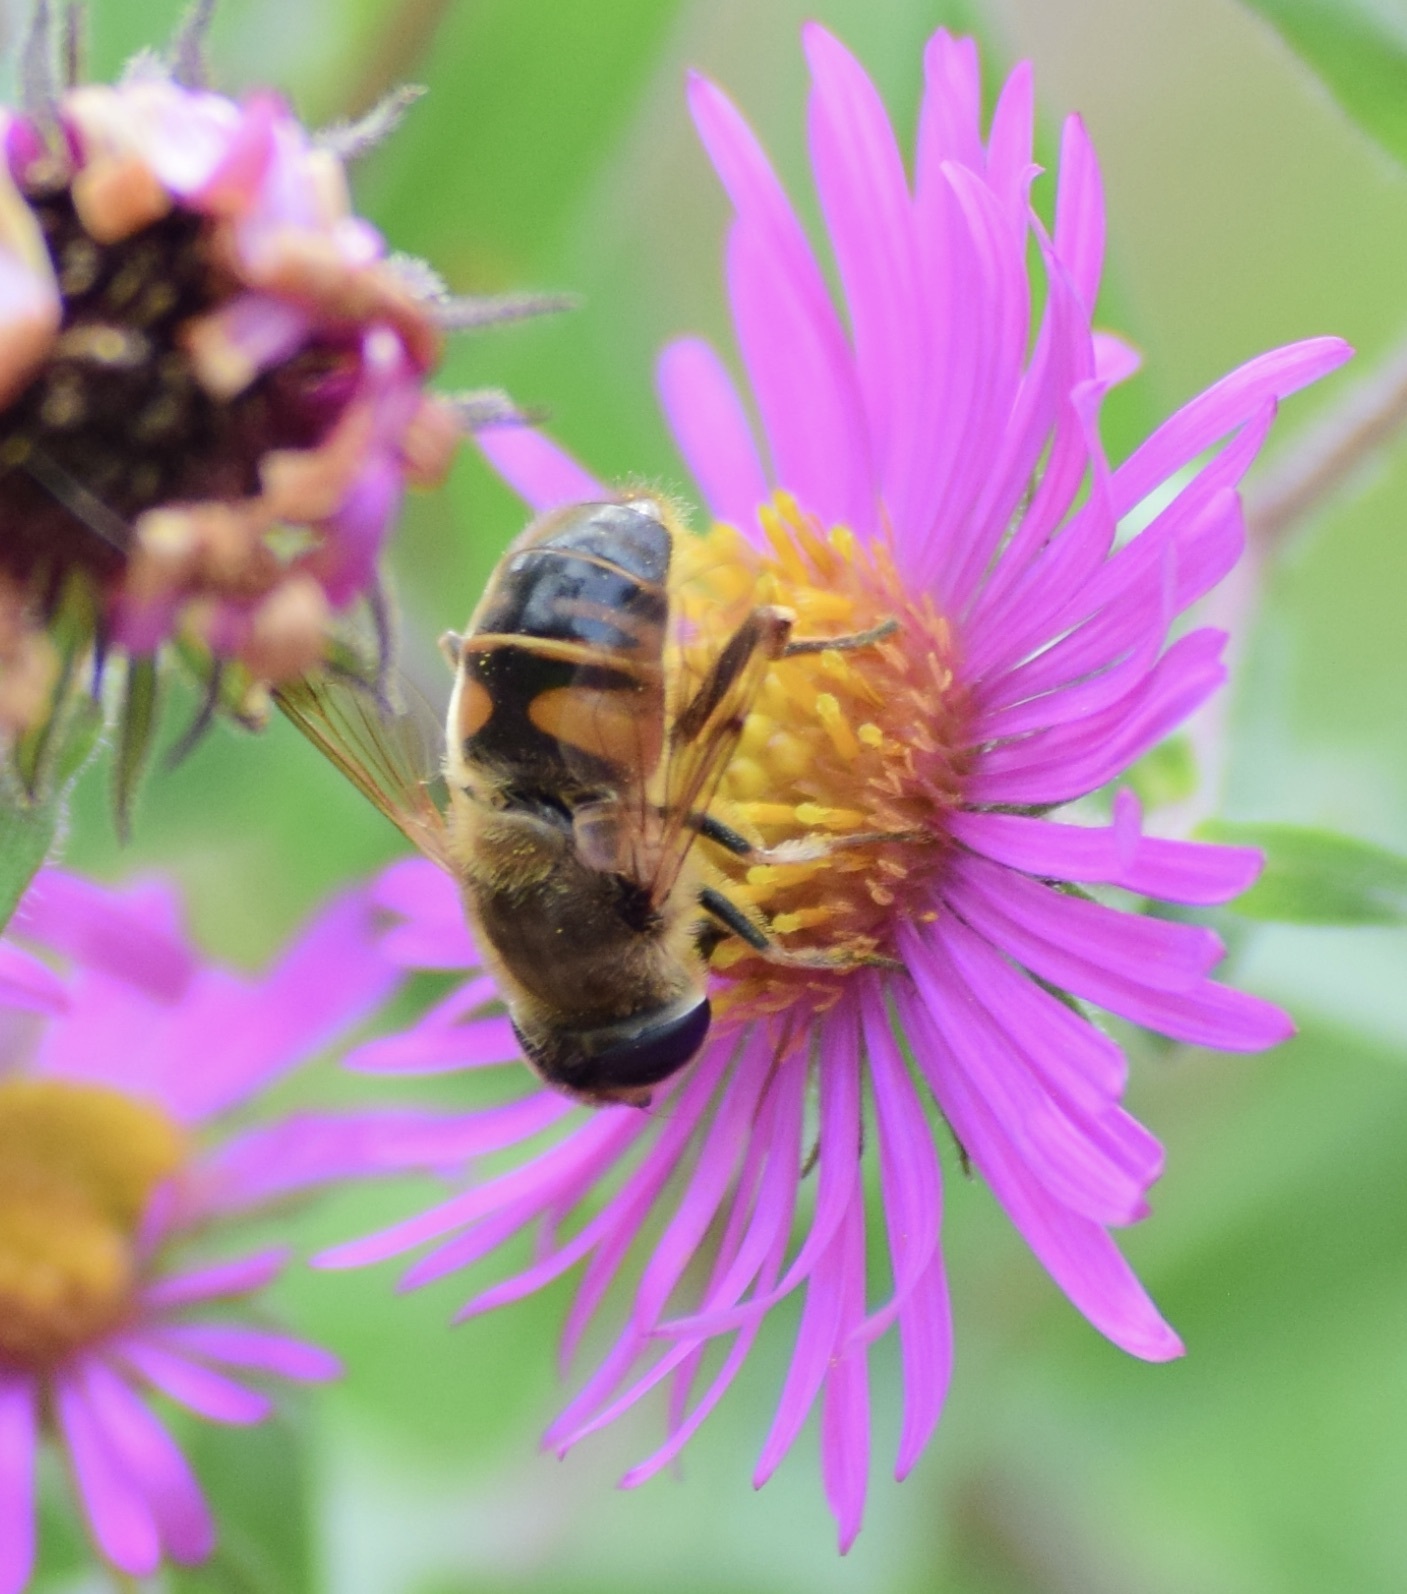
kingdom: Animalia
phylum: Arthropoda
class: Insecta
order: Diptera
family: Syrphidae
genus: Eristalis
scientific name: Eristalis tenax
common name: Drone fly
